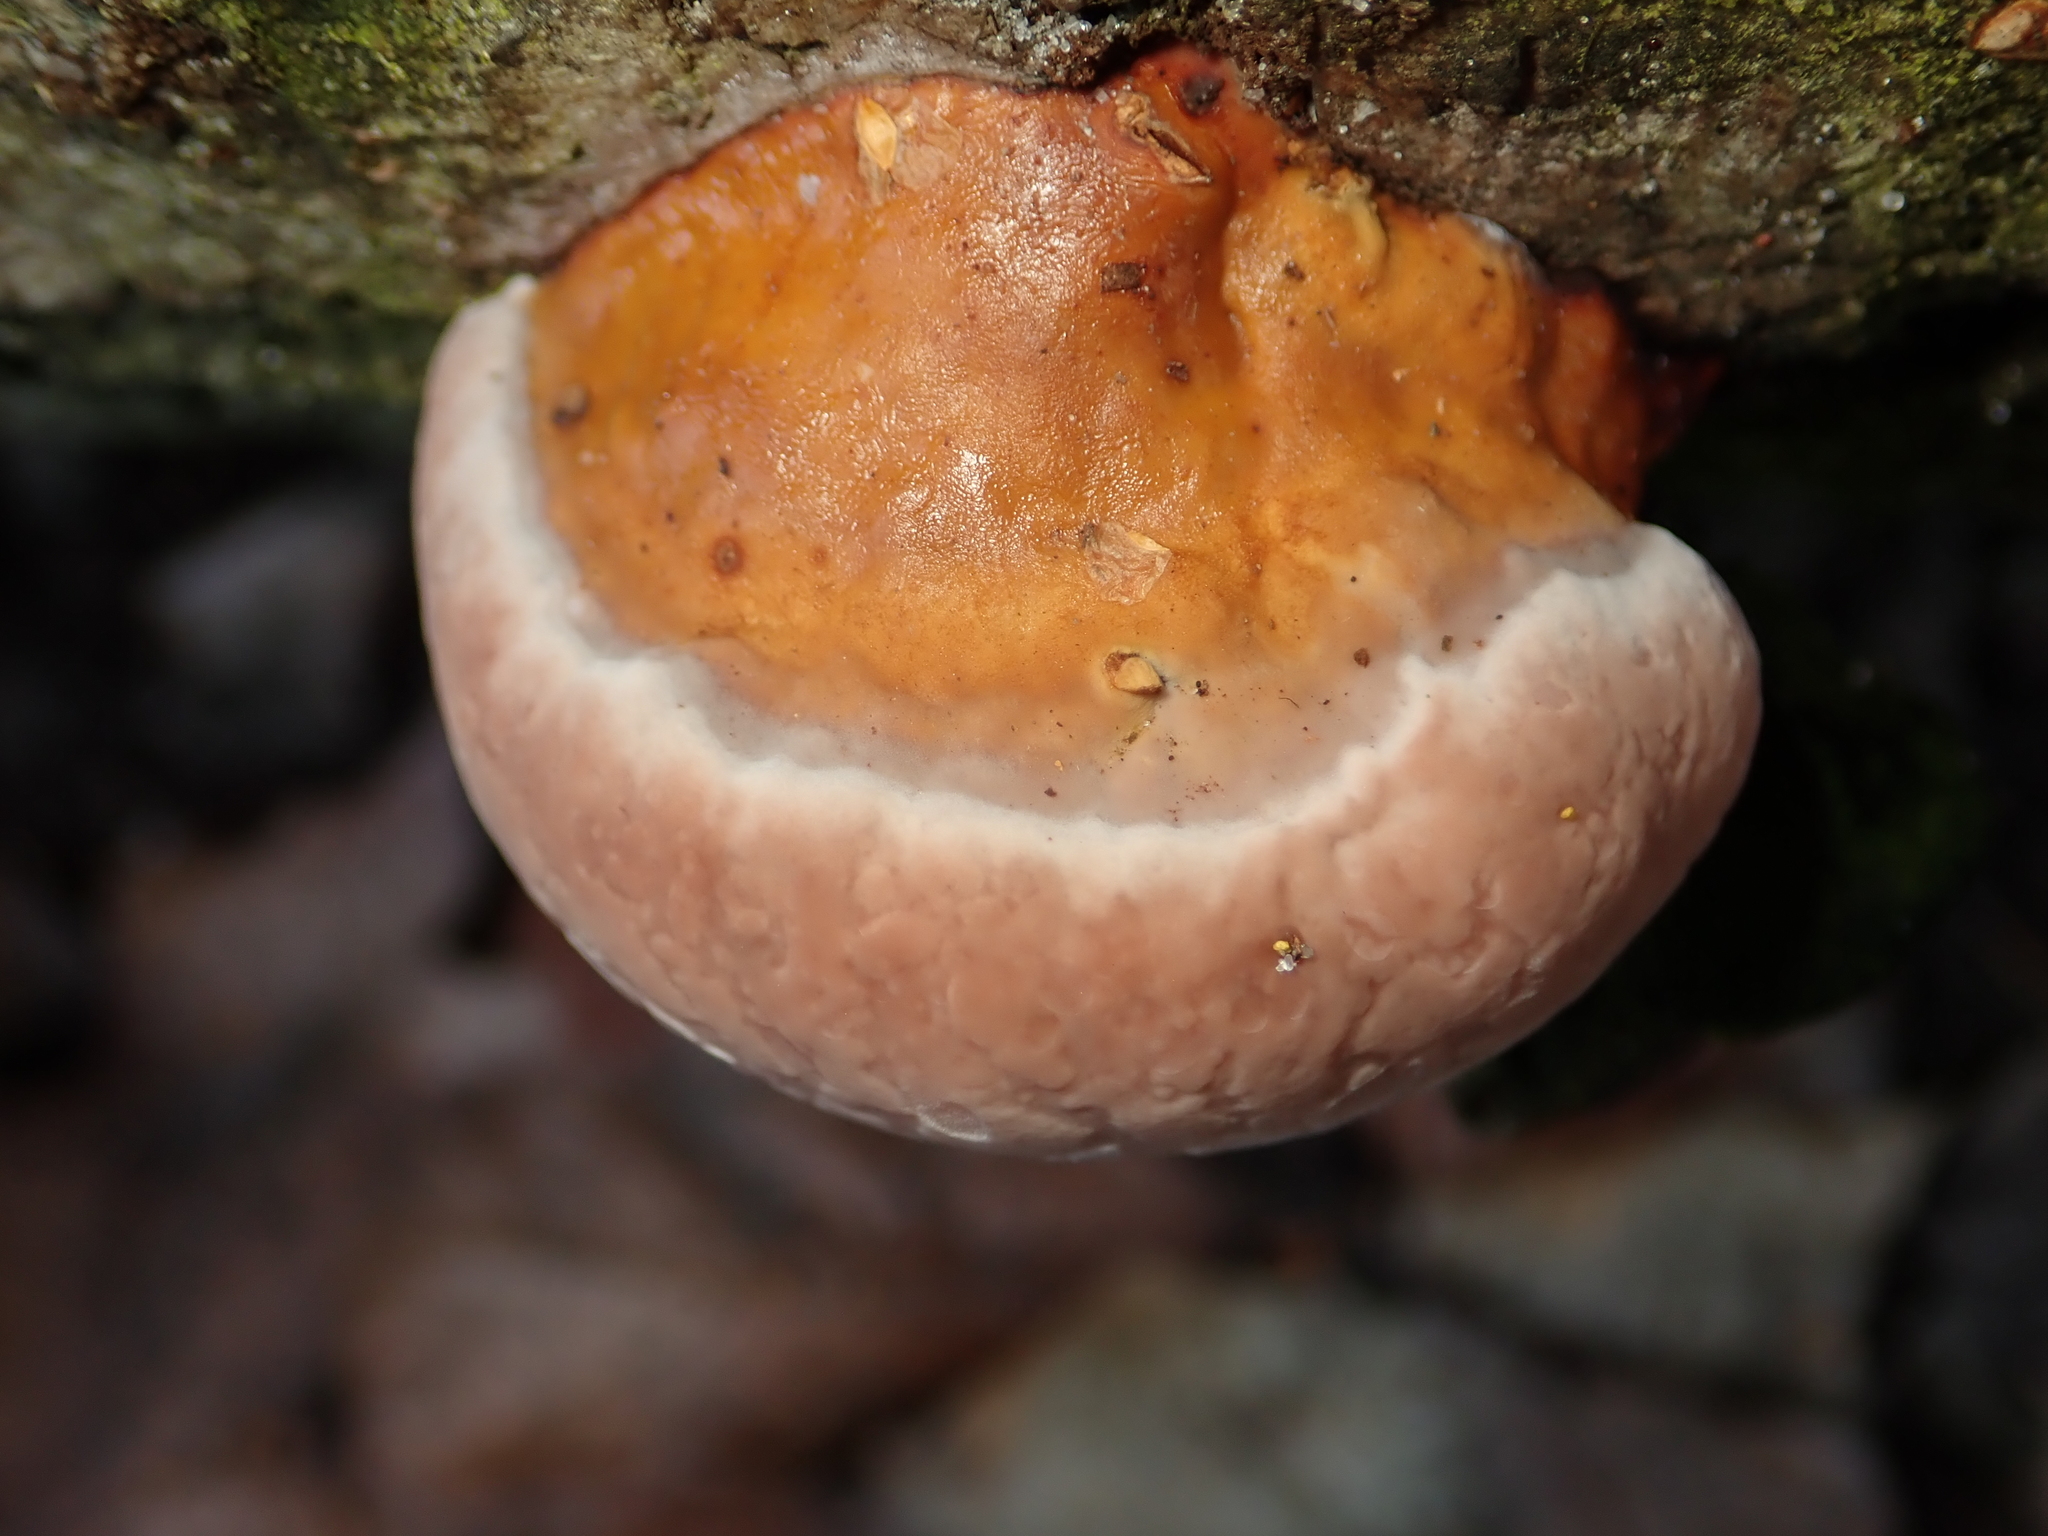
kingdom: Fungi
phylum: Basidiomycota
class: Agaricomycetes
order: Polyporales
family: Fomitopsidaceae
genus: Fomitopsis
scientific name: Fomitopsis pinicola
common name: Red-belted bracket
